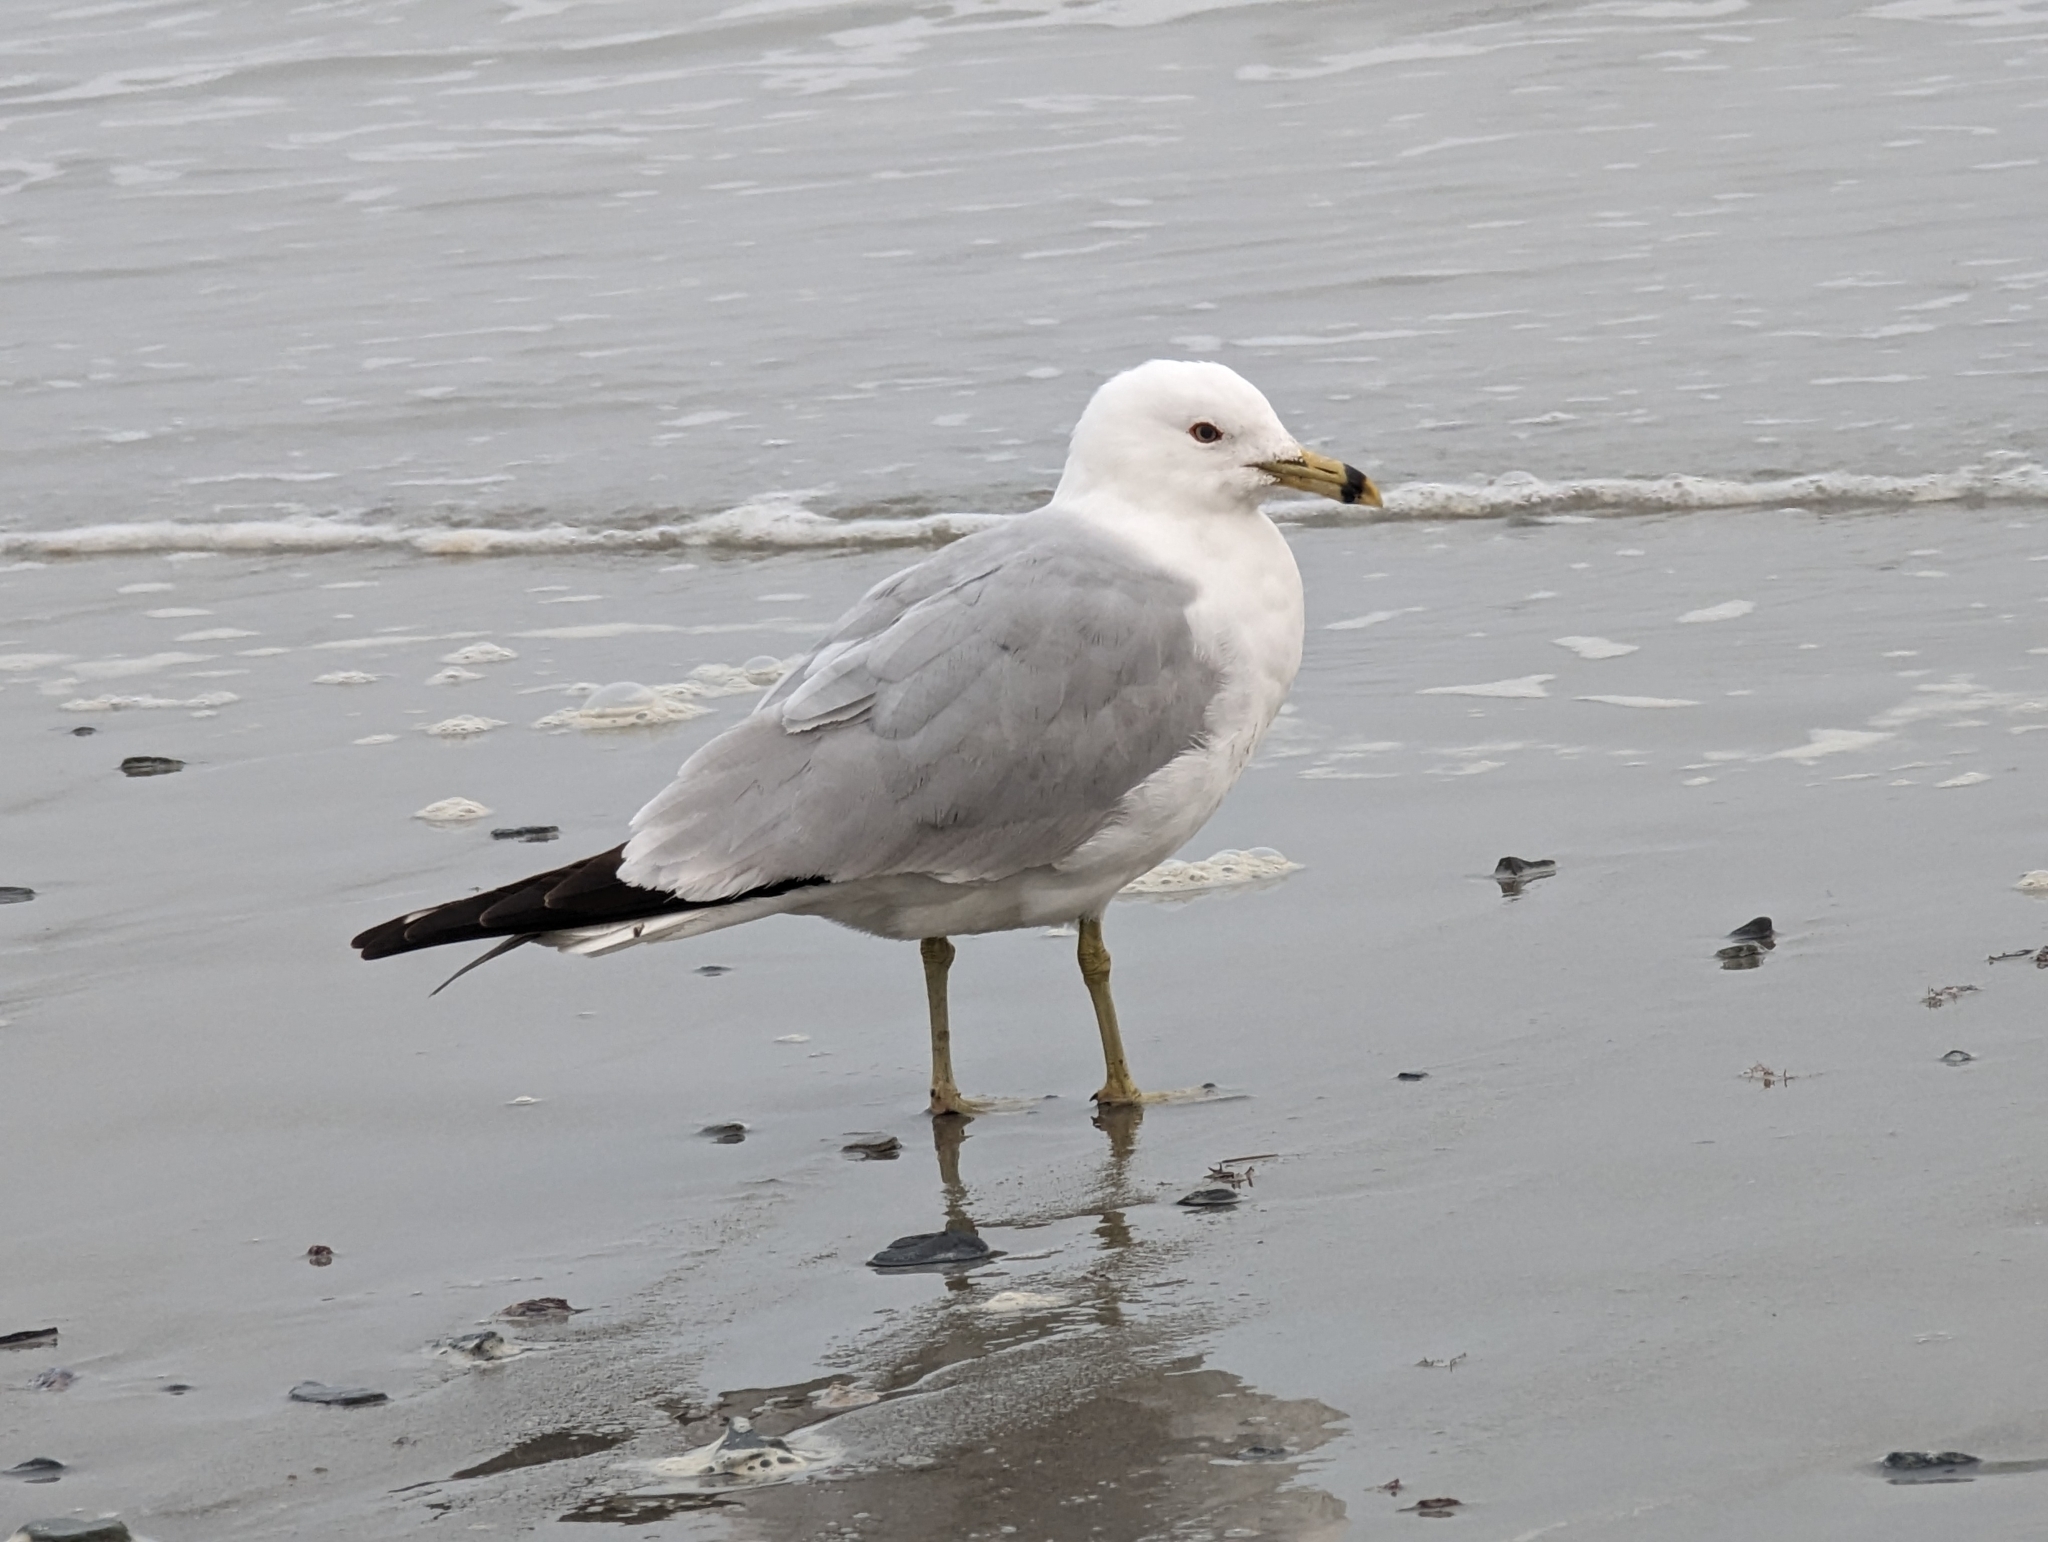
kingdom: Animalia
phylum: Chordata
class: Aves
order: Charadriiformes
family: Laridae
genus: Larus
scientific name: Larus delawarensis
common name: Ring-billed gull
